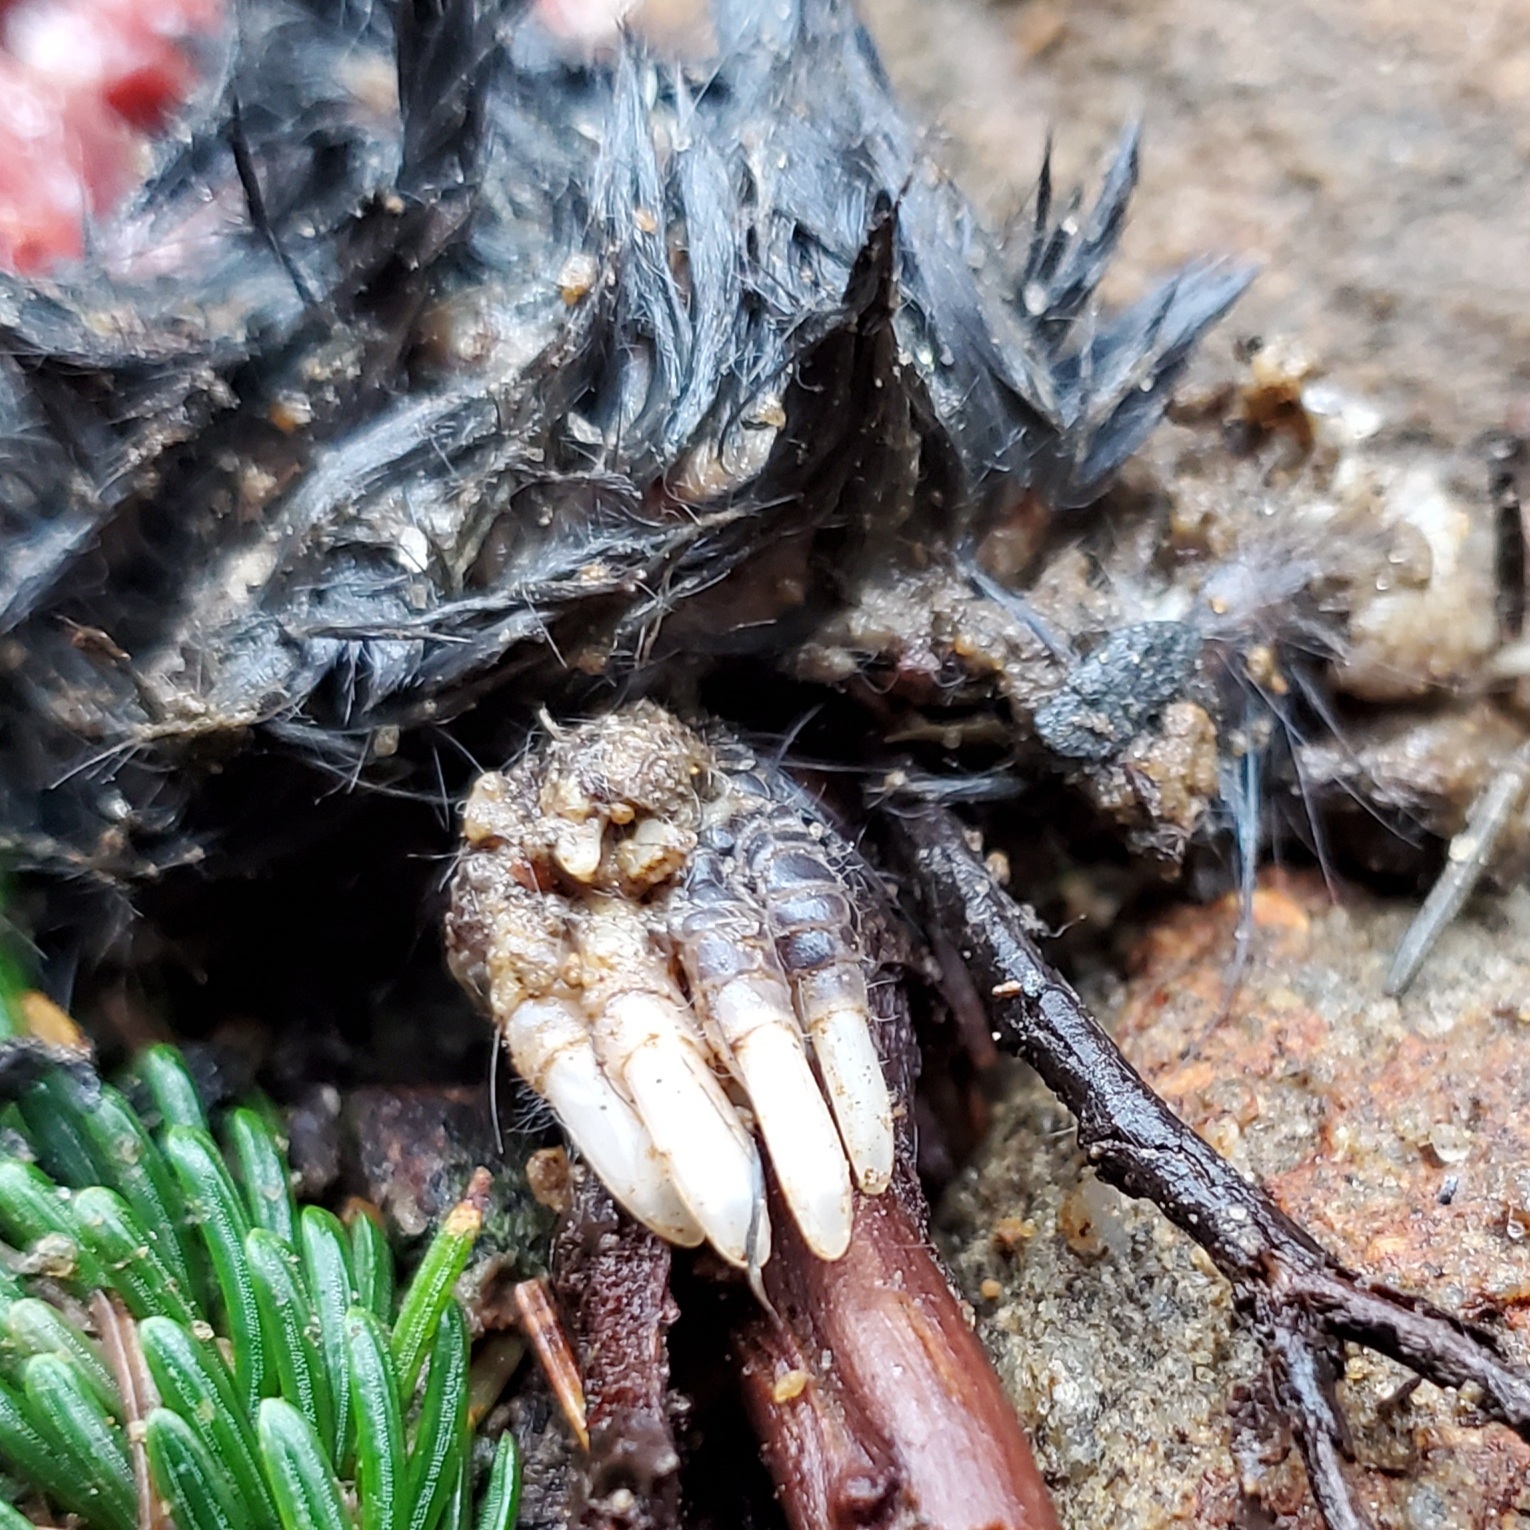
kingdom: Animalia
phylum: Chordata
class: Mammalia
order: Soricomorpha
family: Talpidae
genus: Condylura
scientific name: Condylura cristata
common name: Star-nosed mole
